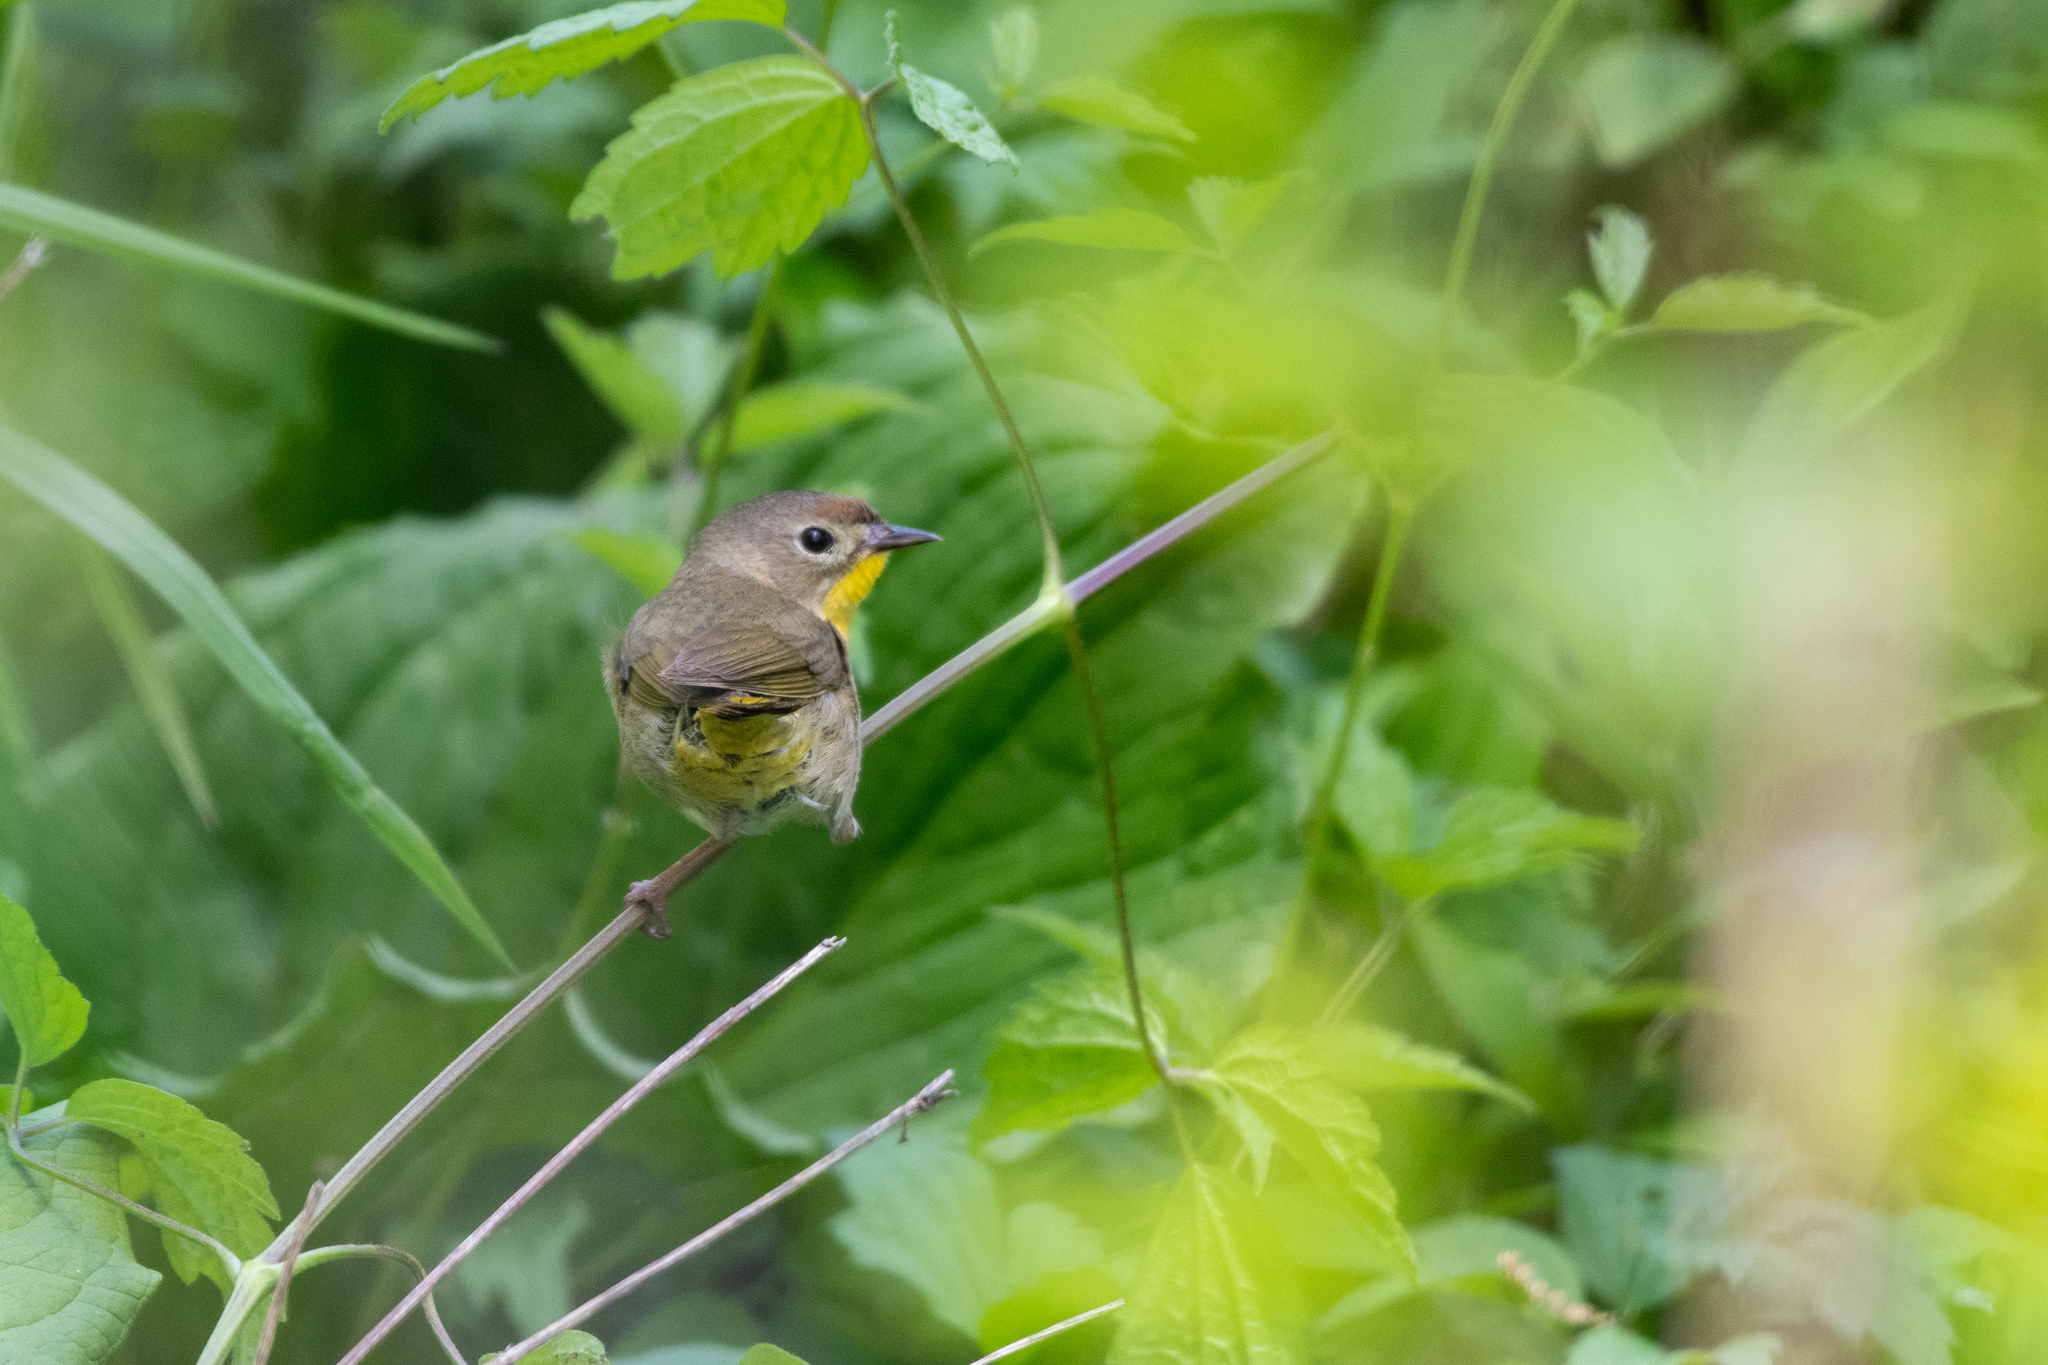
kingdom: Animalia
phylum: Chordata
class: Aves
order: Passeriformes
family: Parulidae
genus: Geothlypis
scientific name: Geothlypis trichas
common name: Common yellowthroat
